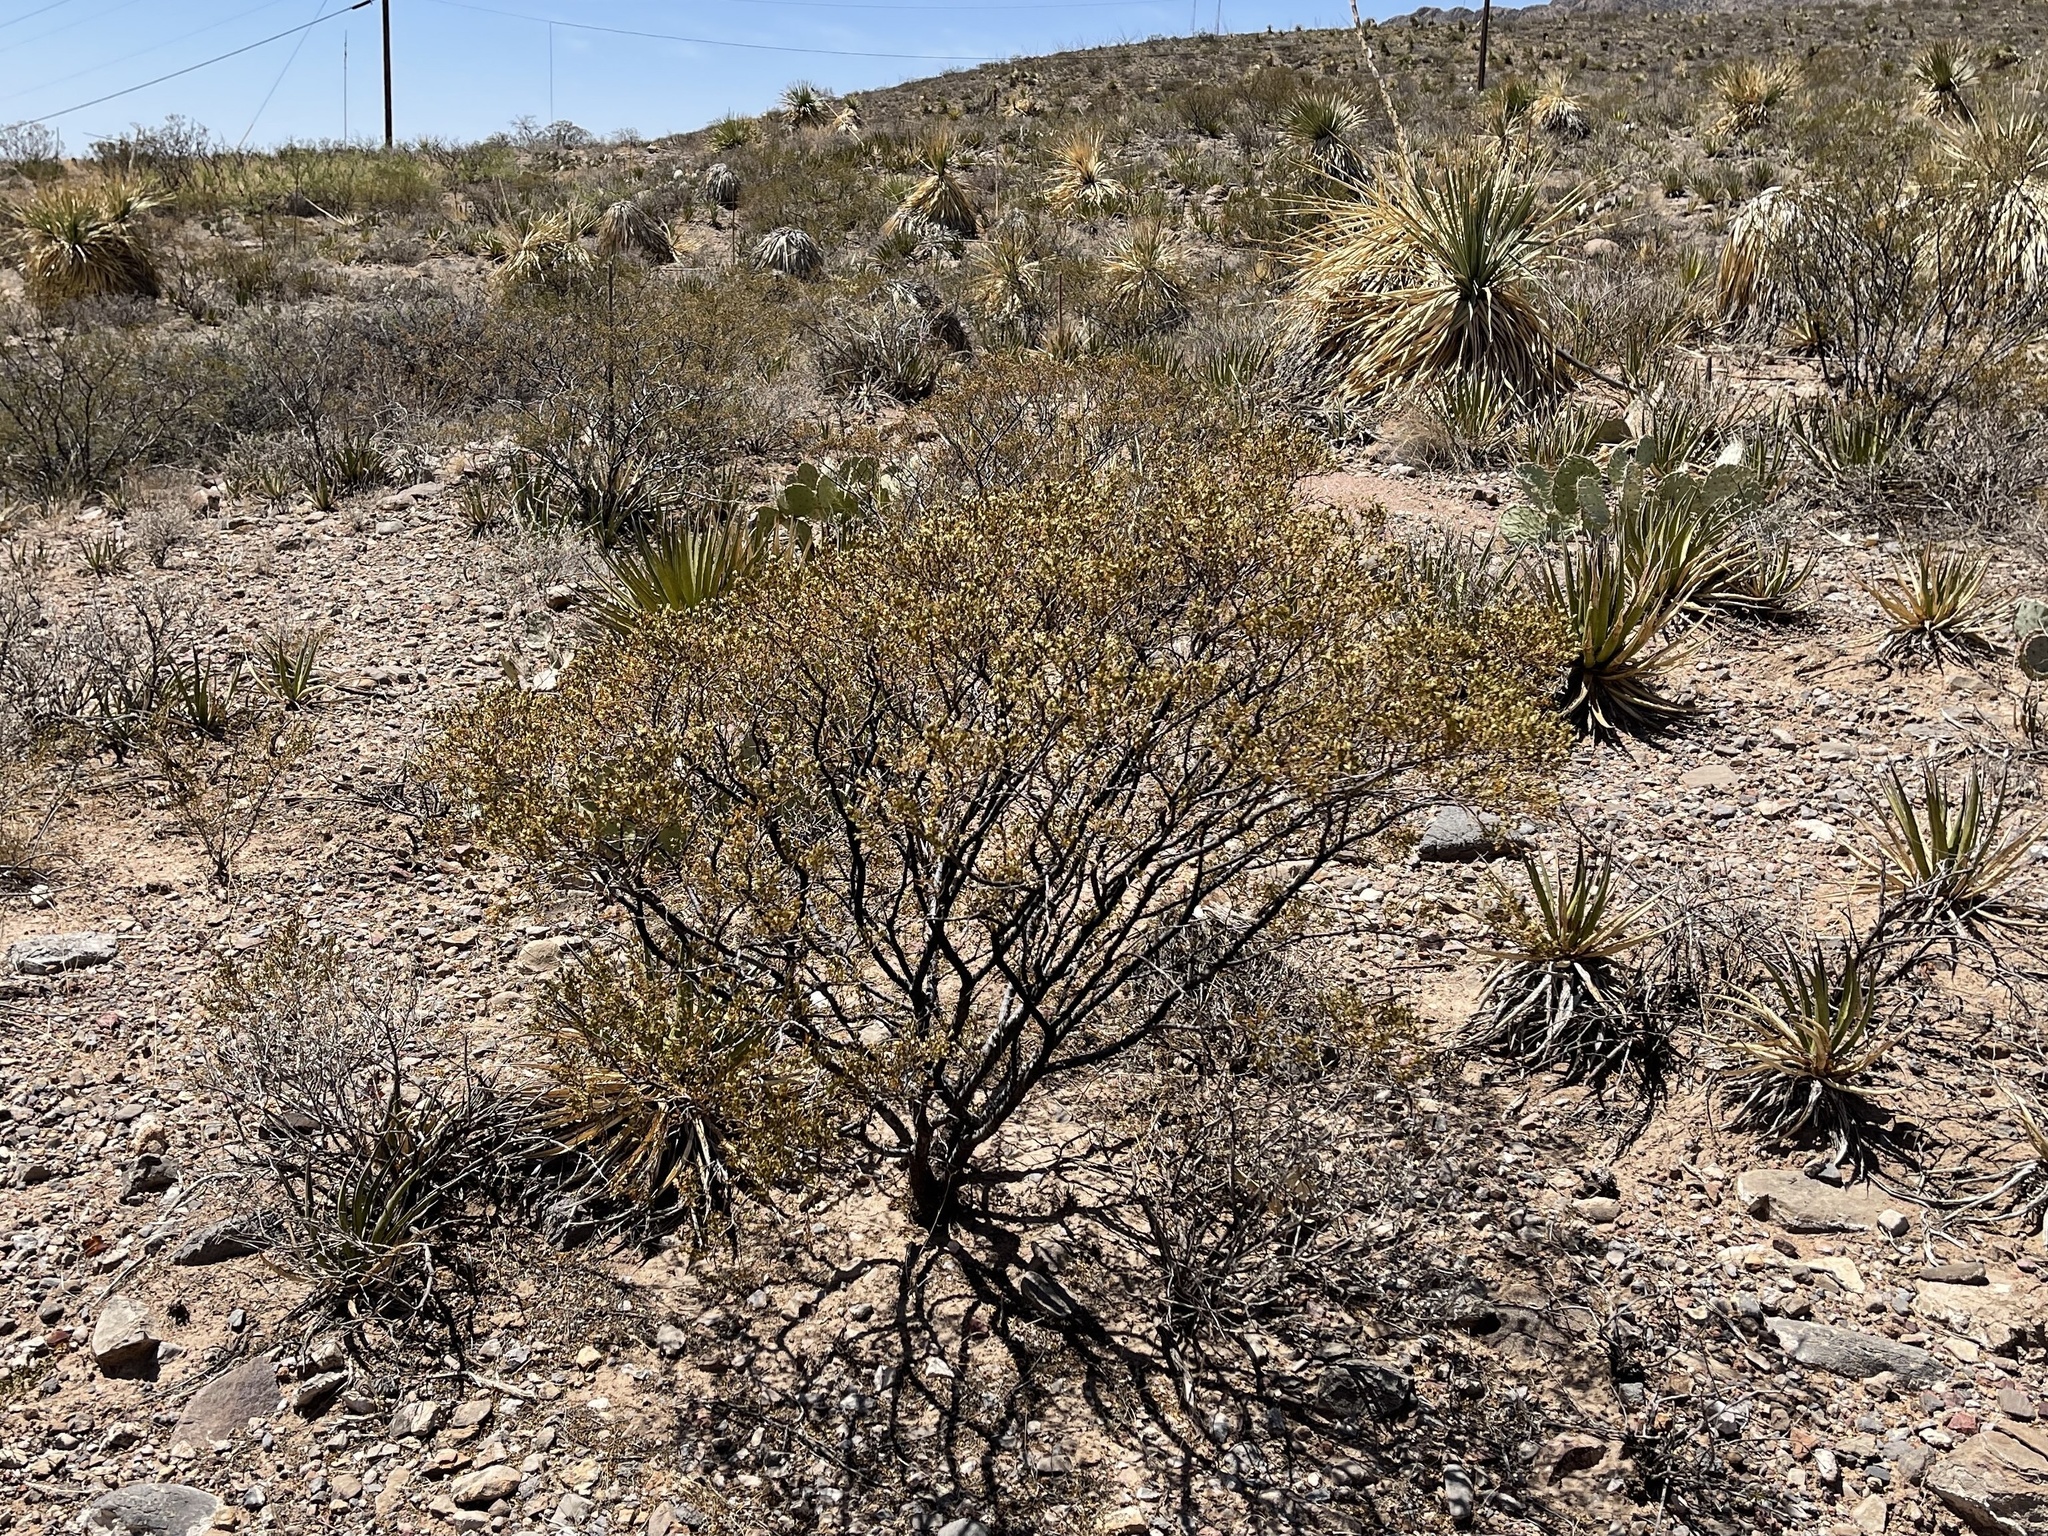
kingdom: Plantae
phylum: Tracheophyta
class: Magnoliopsida
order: Zygophyllales
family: Zygophyllaceae
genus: Larrea
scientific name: Larrea tridentata
